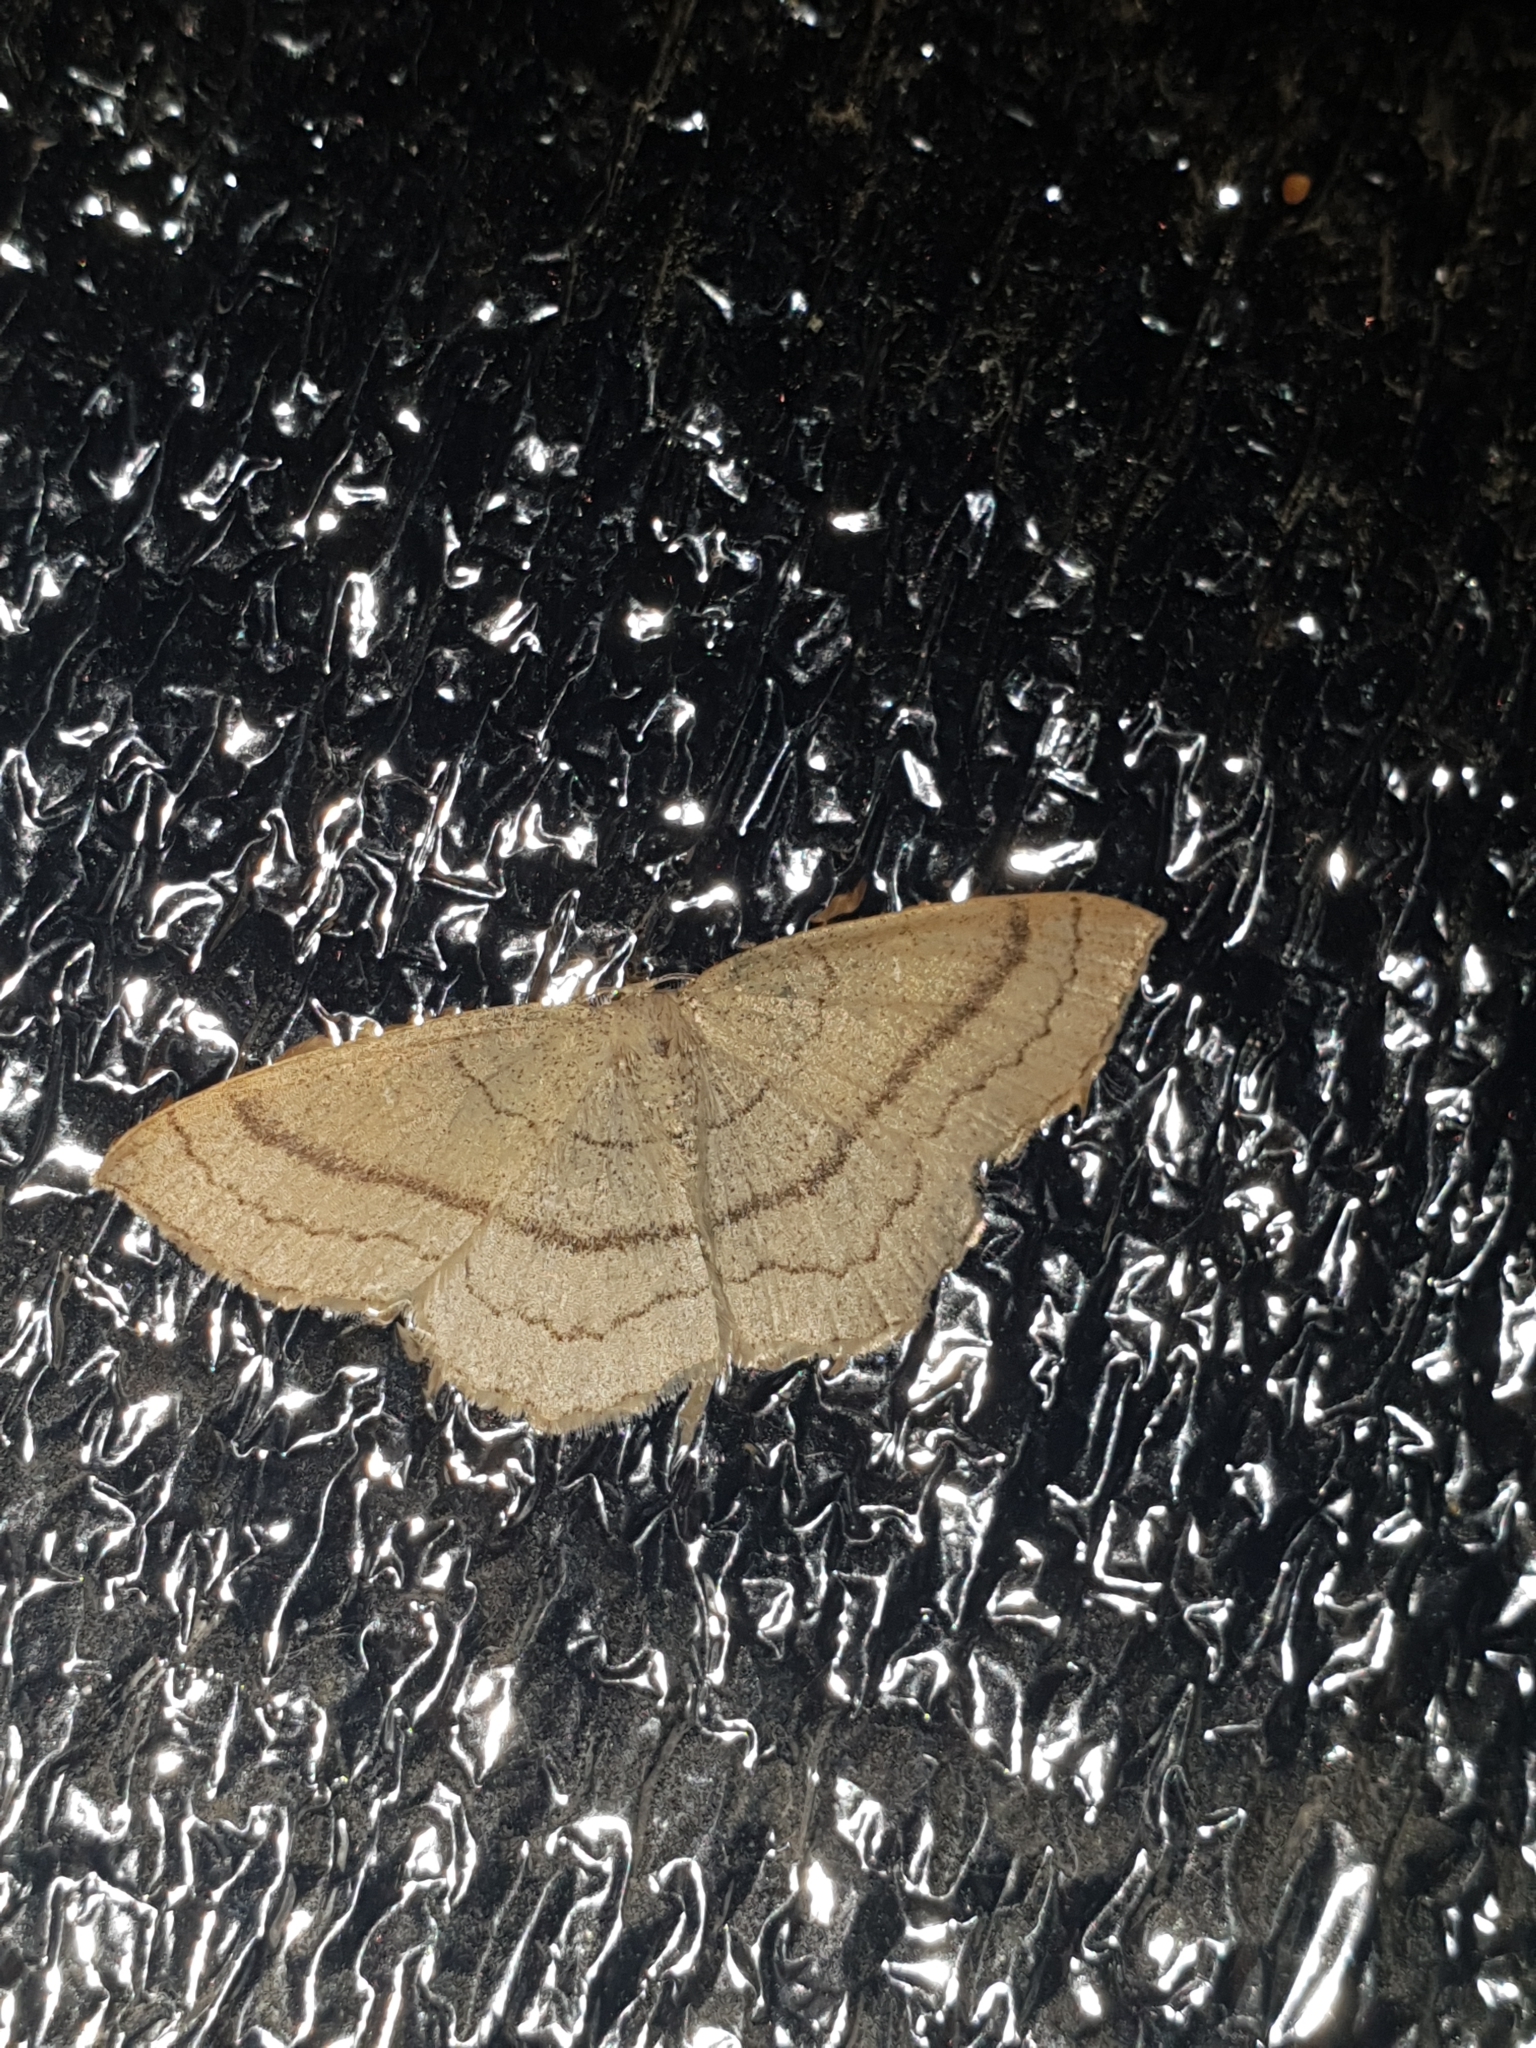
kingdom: Animalia
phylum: Arthropoda
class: Insecta
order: Lepidoptera
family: Geometridae
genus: Cyclophora
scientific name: Cyclophora linearia
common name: Clay triple-lines
